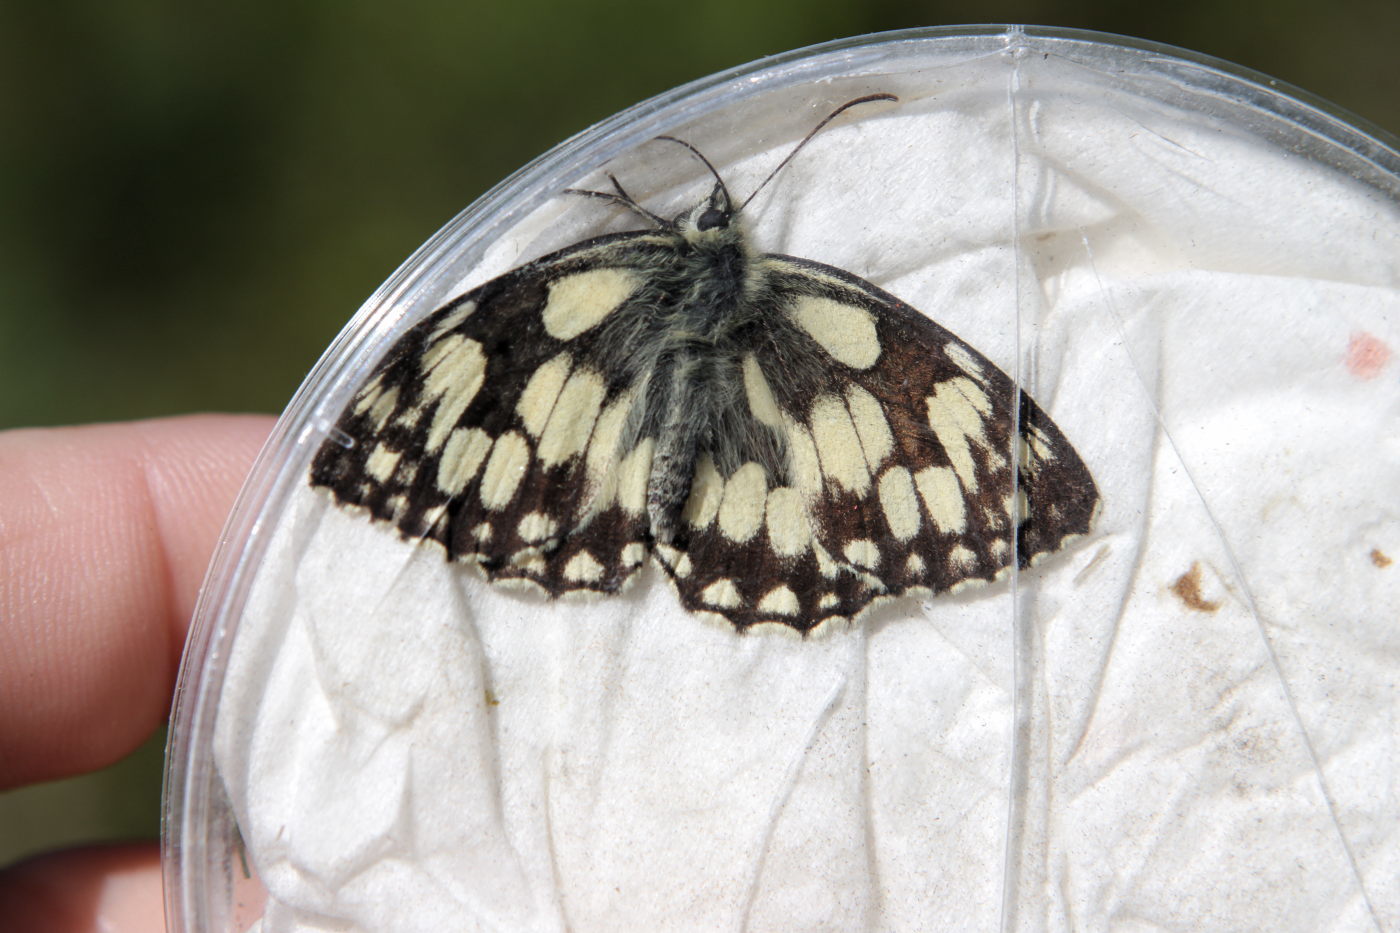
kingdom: Animalia
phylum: Arthropoda
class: Insecta
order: Lepidoptera
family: Nymphalidae
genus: Melanargia
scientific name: Melanargia galathea
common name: Marbled white
